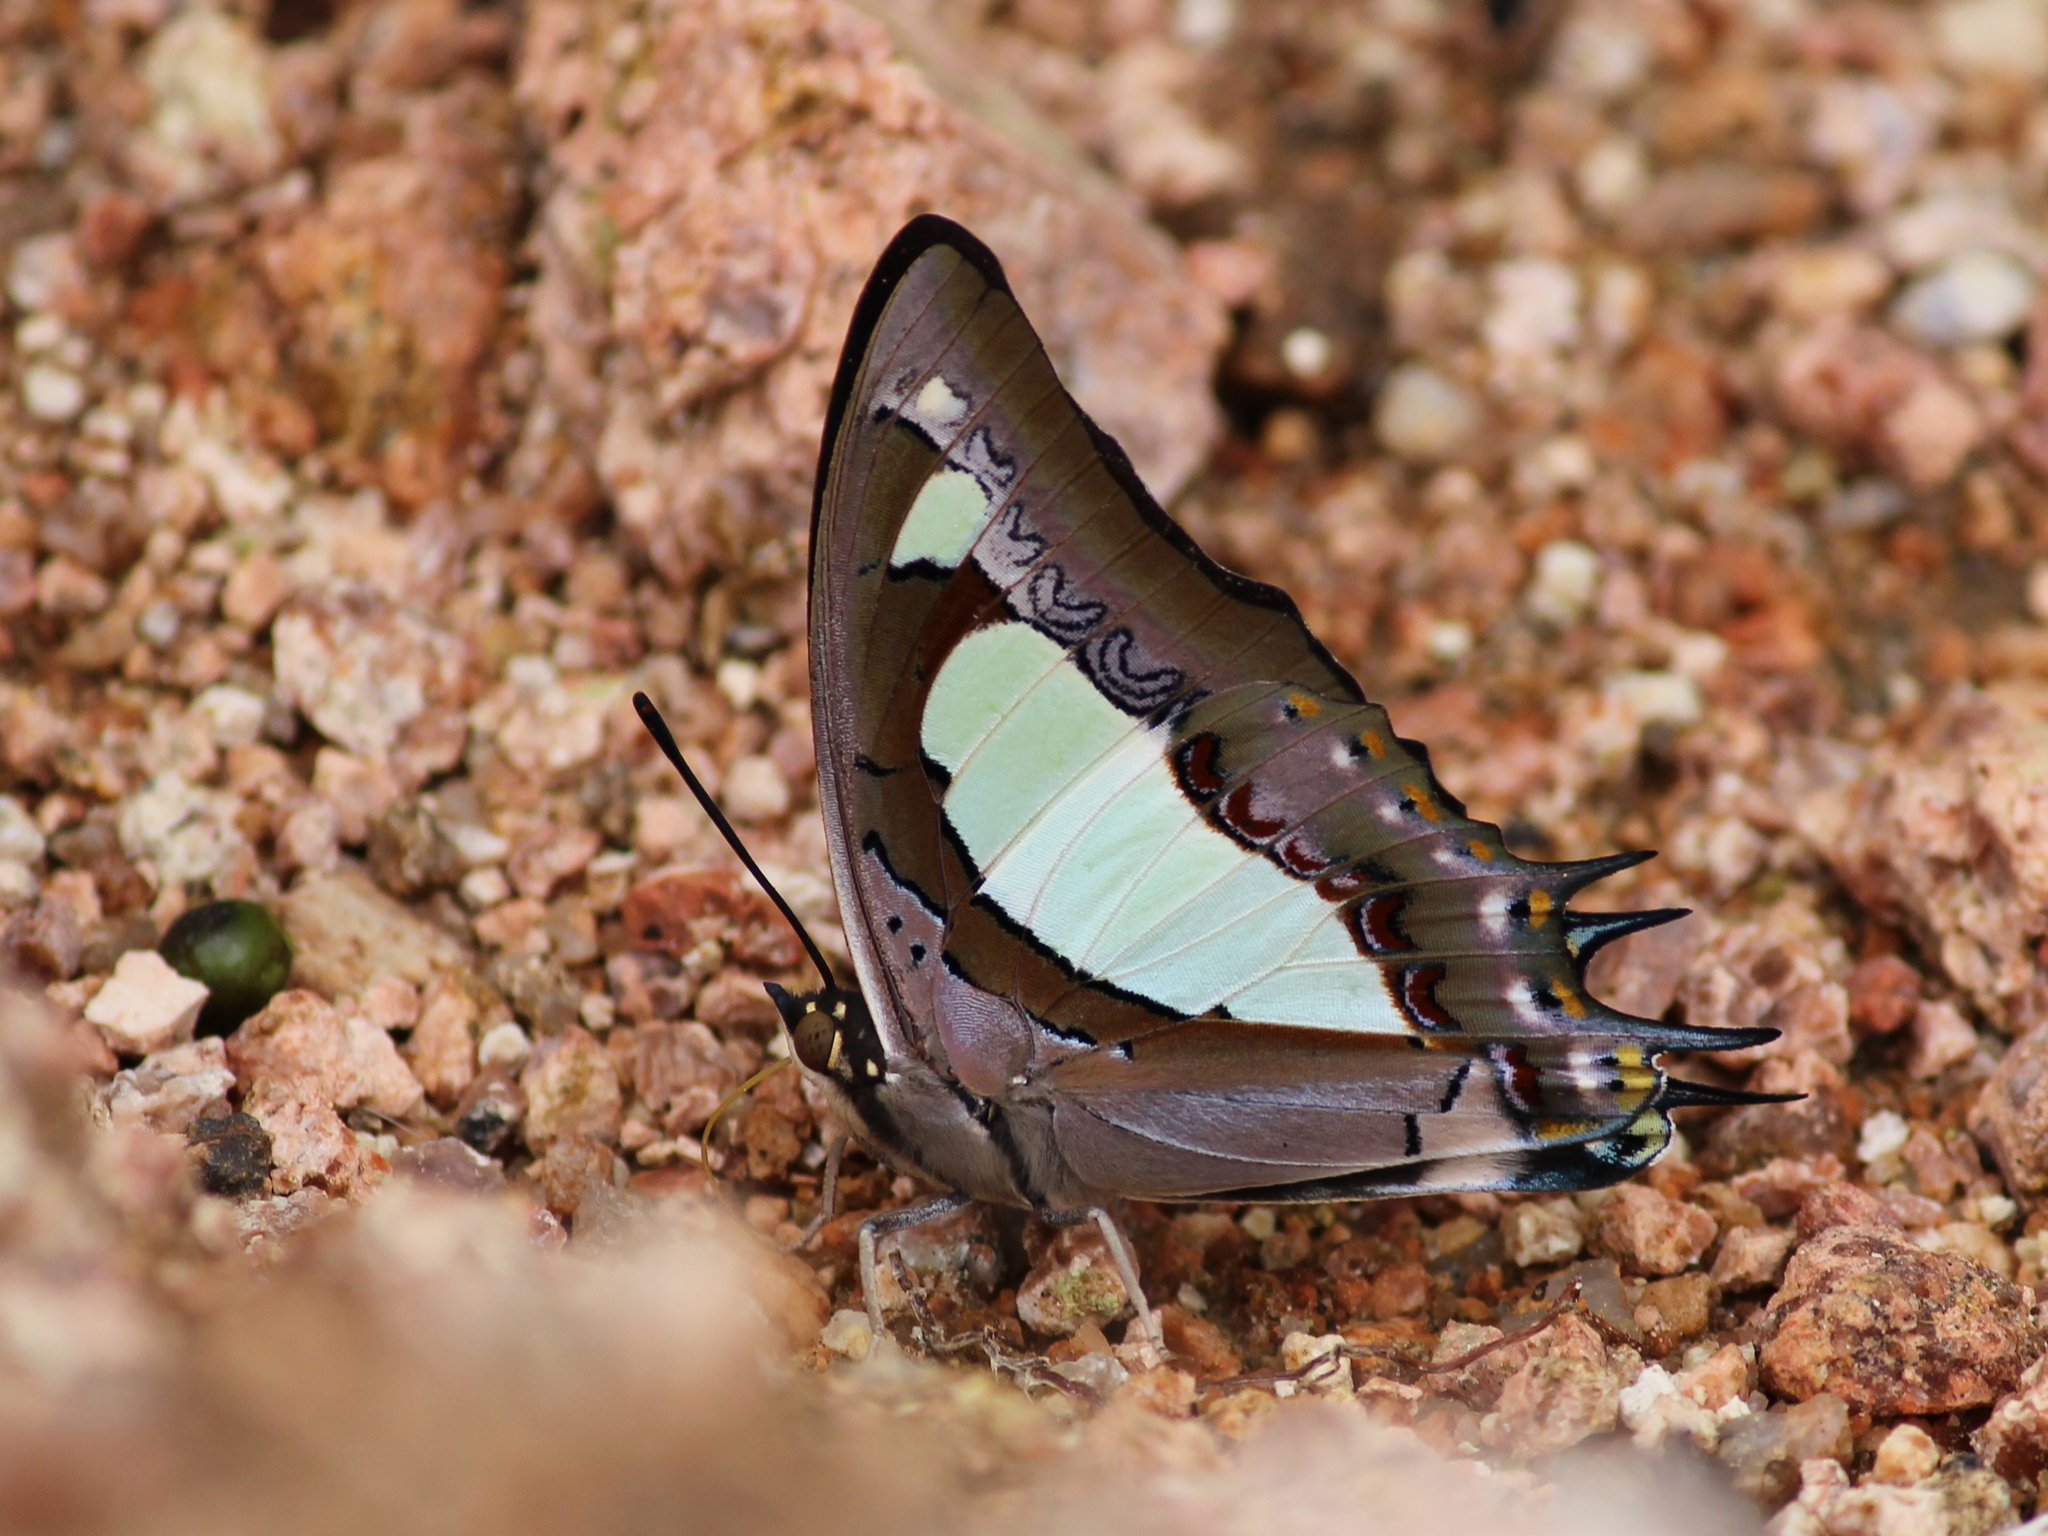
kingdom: Animalia
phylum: Arthropoda
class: Insecta
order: Lepidoptera
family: Nymphalidae
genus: Polyura
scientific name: Polyura agrarius
